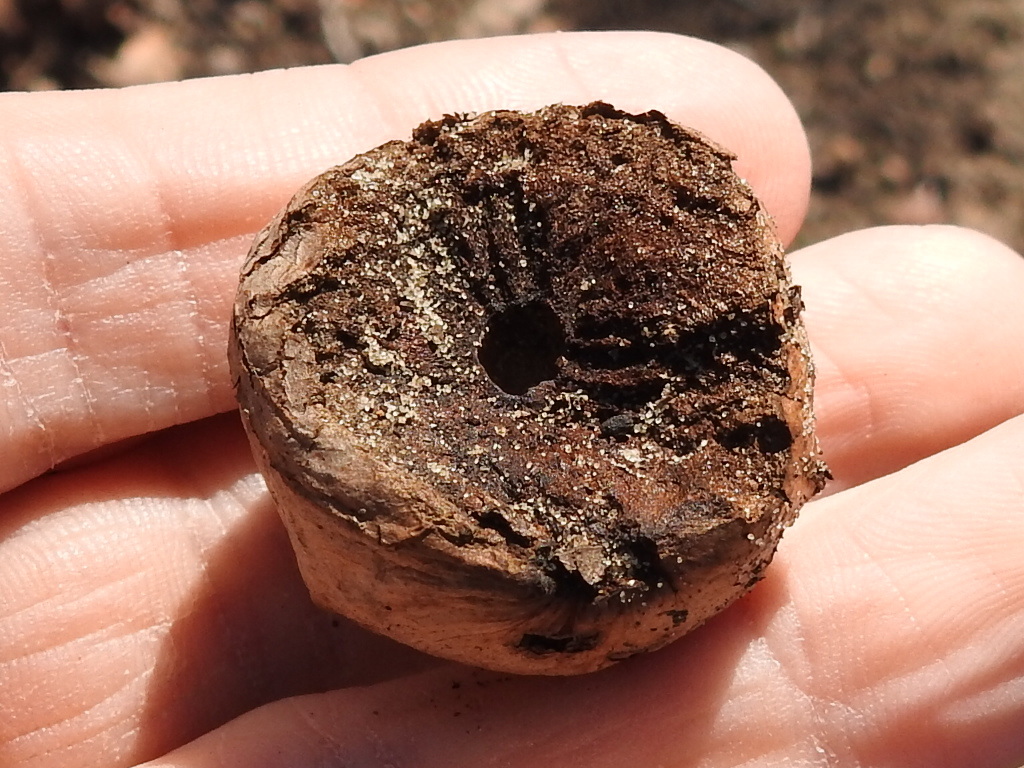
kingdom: Animalia
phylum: Arthropoda
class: Insecta
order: Hymenoptera
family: Cynipidae
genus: Amphibolips
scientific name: Amphibolips gainesi
